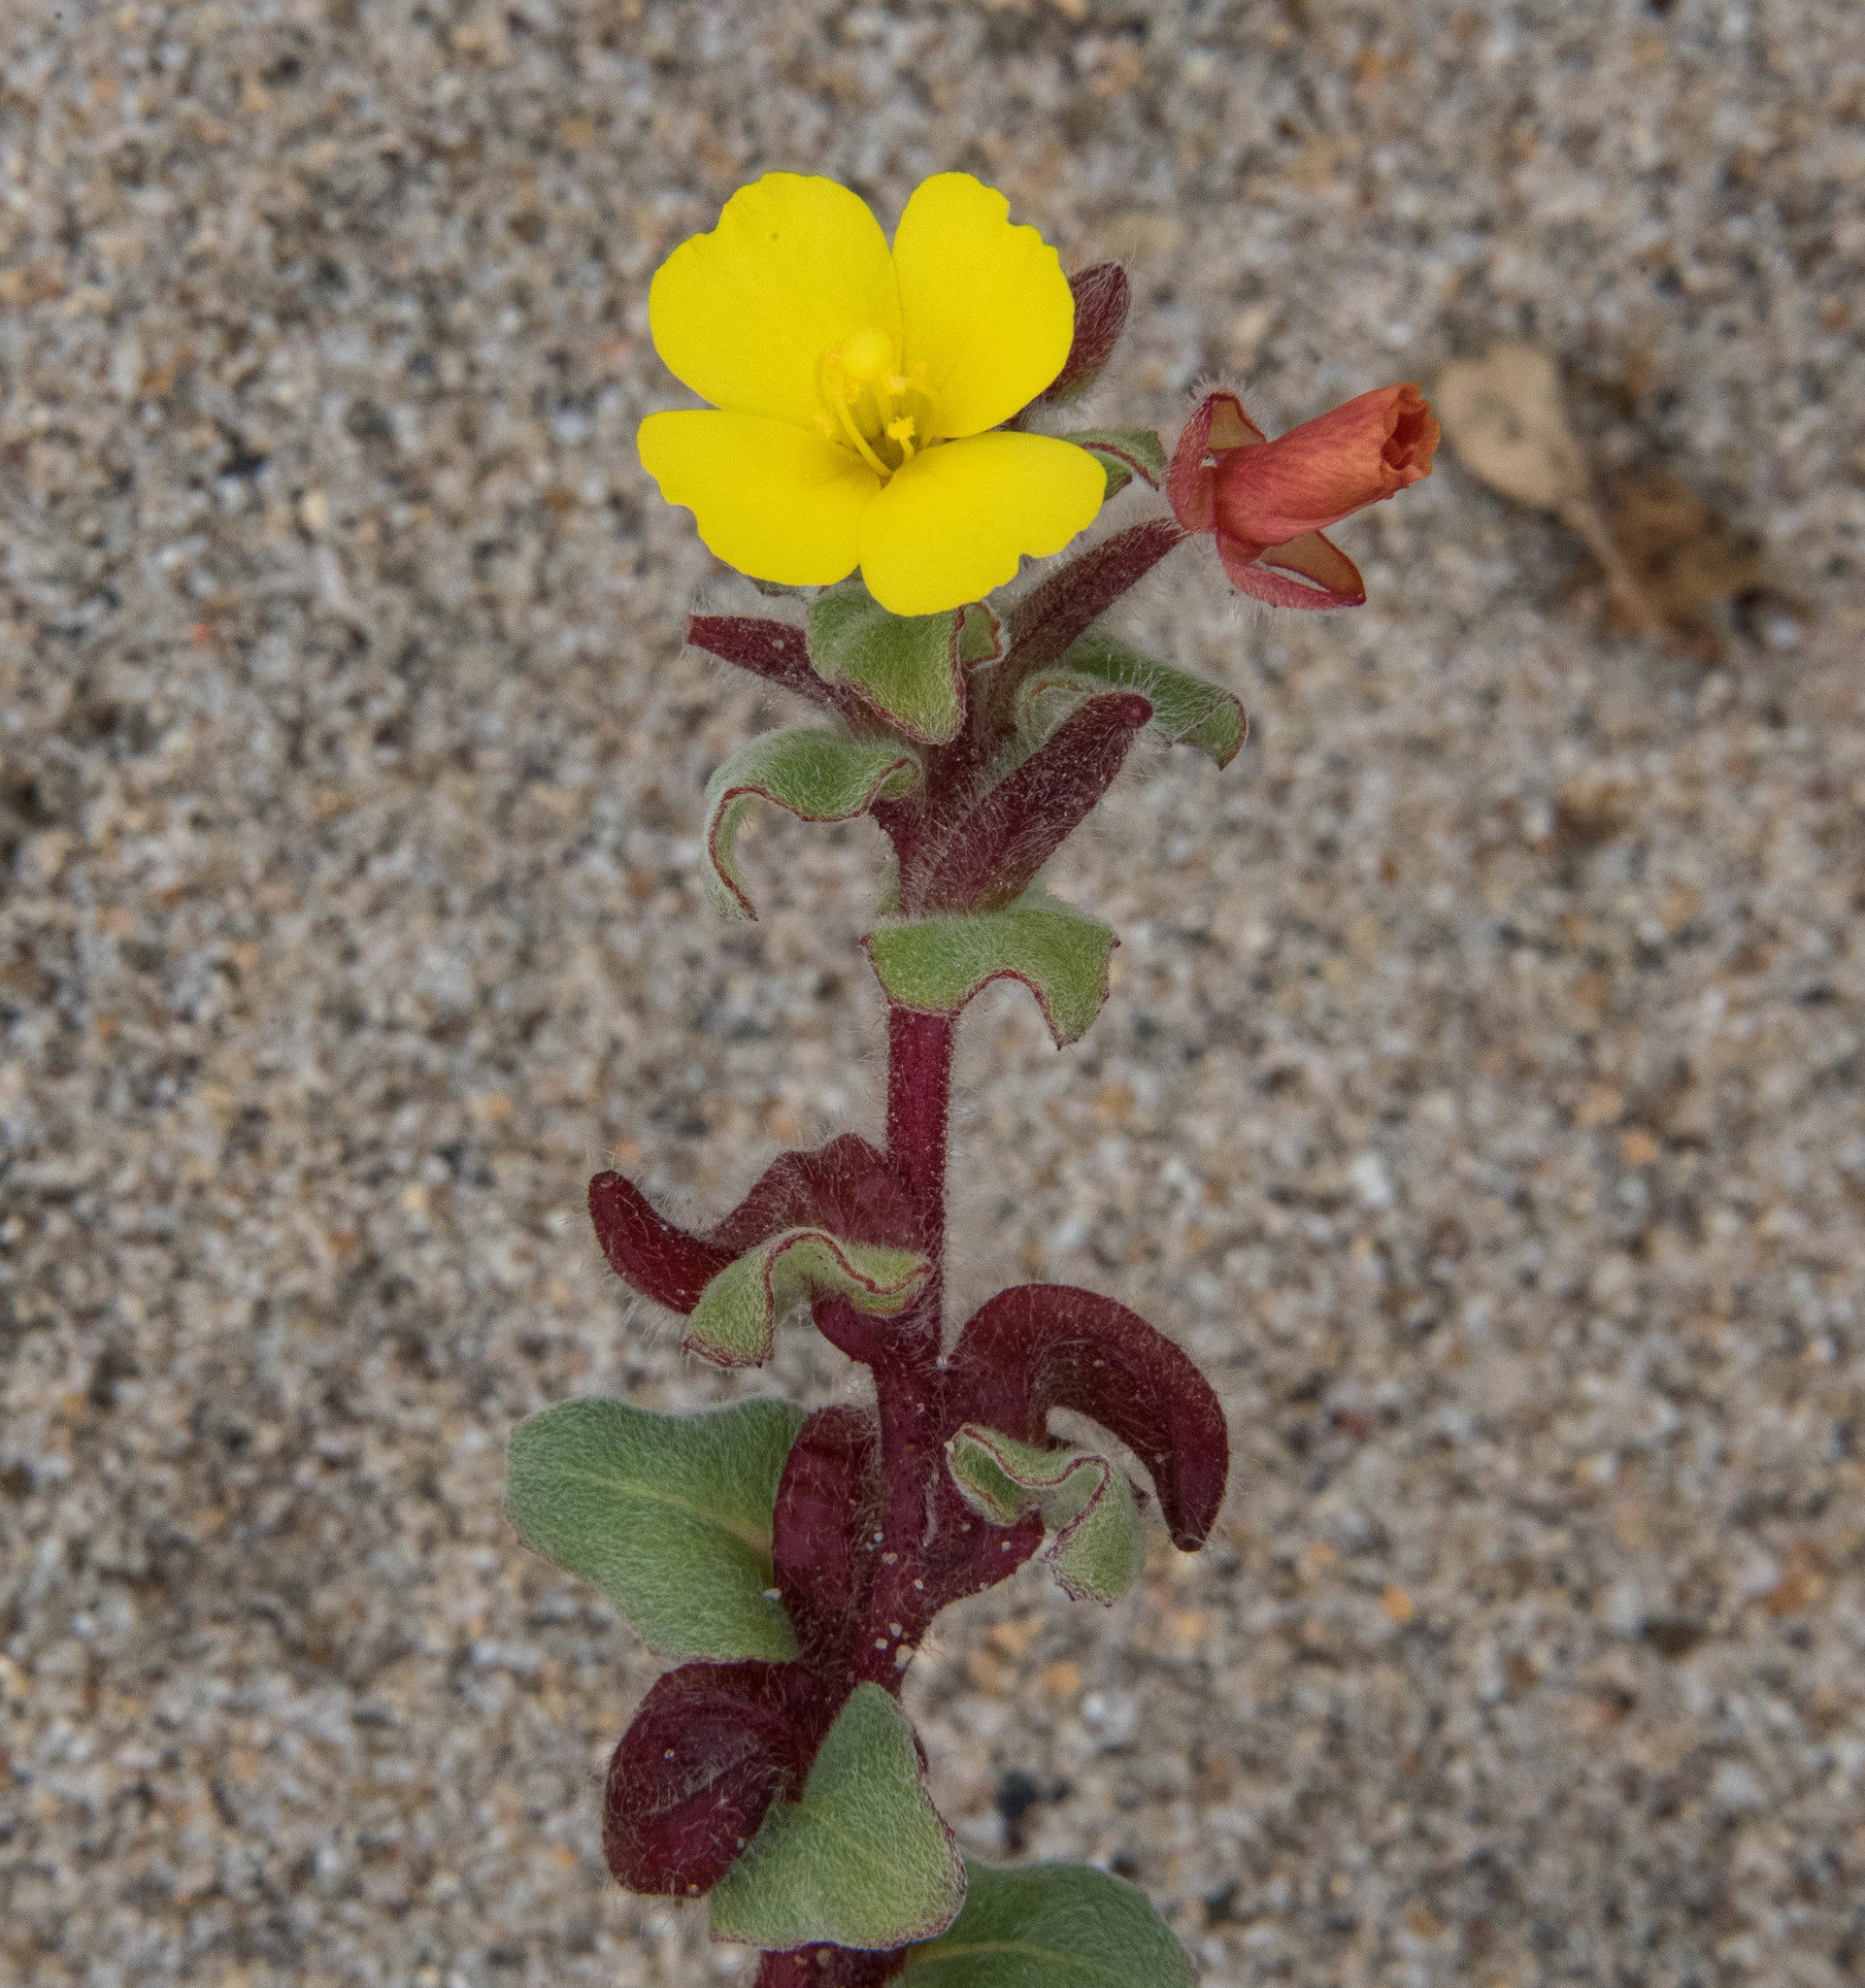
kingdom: Plantae
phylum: Tracheophyta
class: Magnoliopsida
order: Myrtales
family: Onagraceae
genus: Camissoniopsis
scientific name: Camissoniopsis cheiranthifolia
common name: Beach suncup
